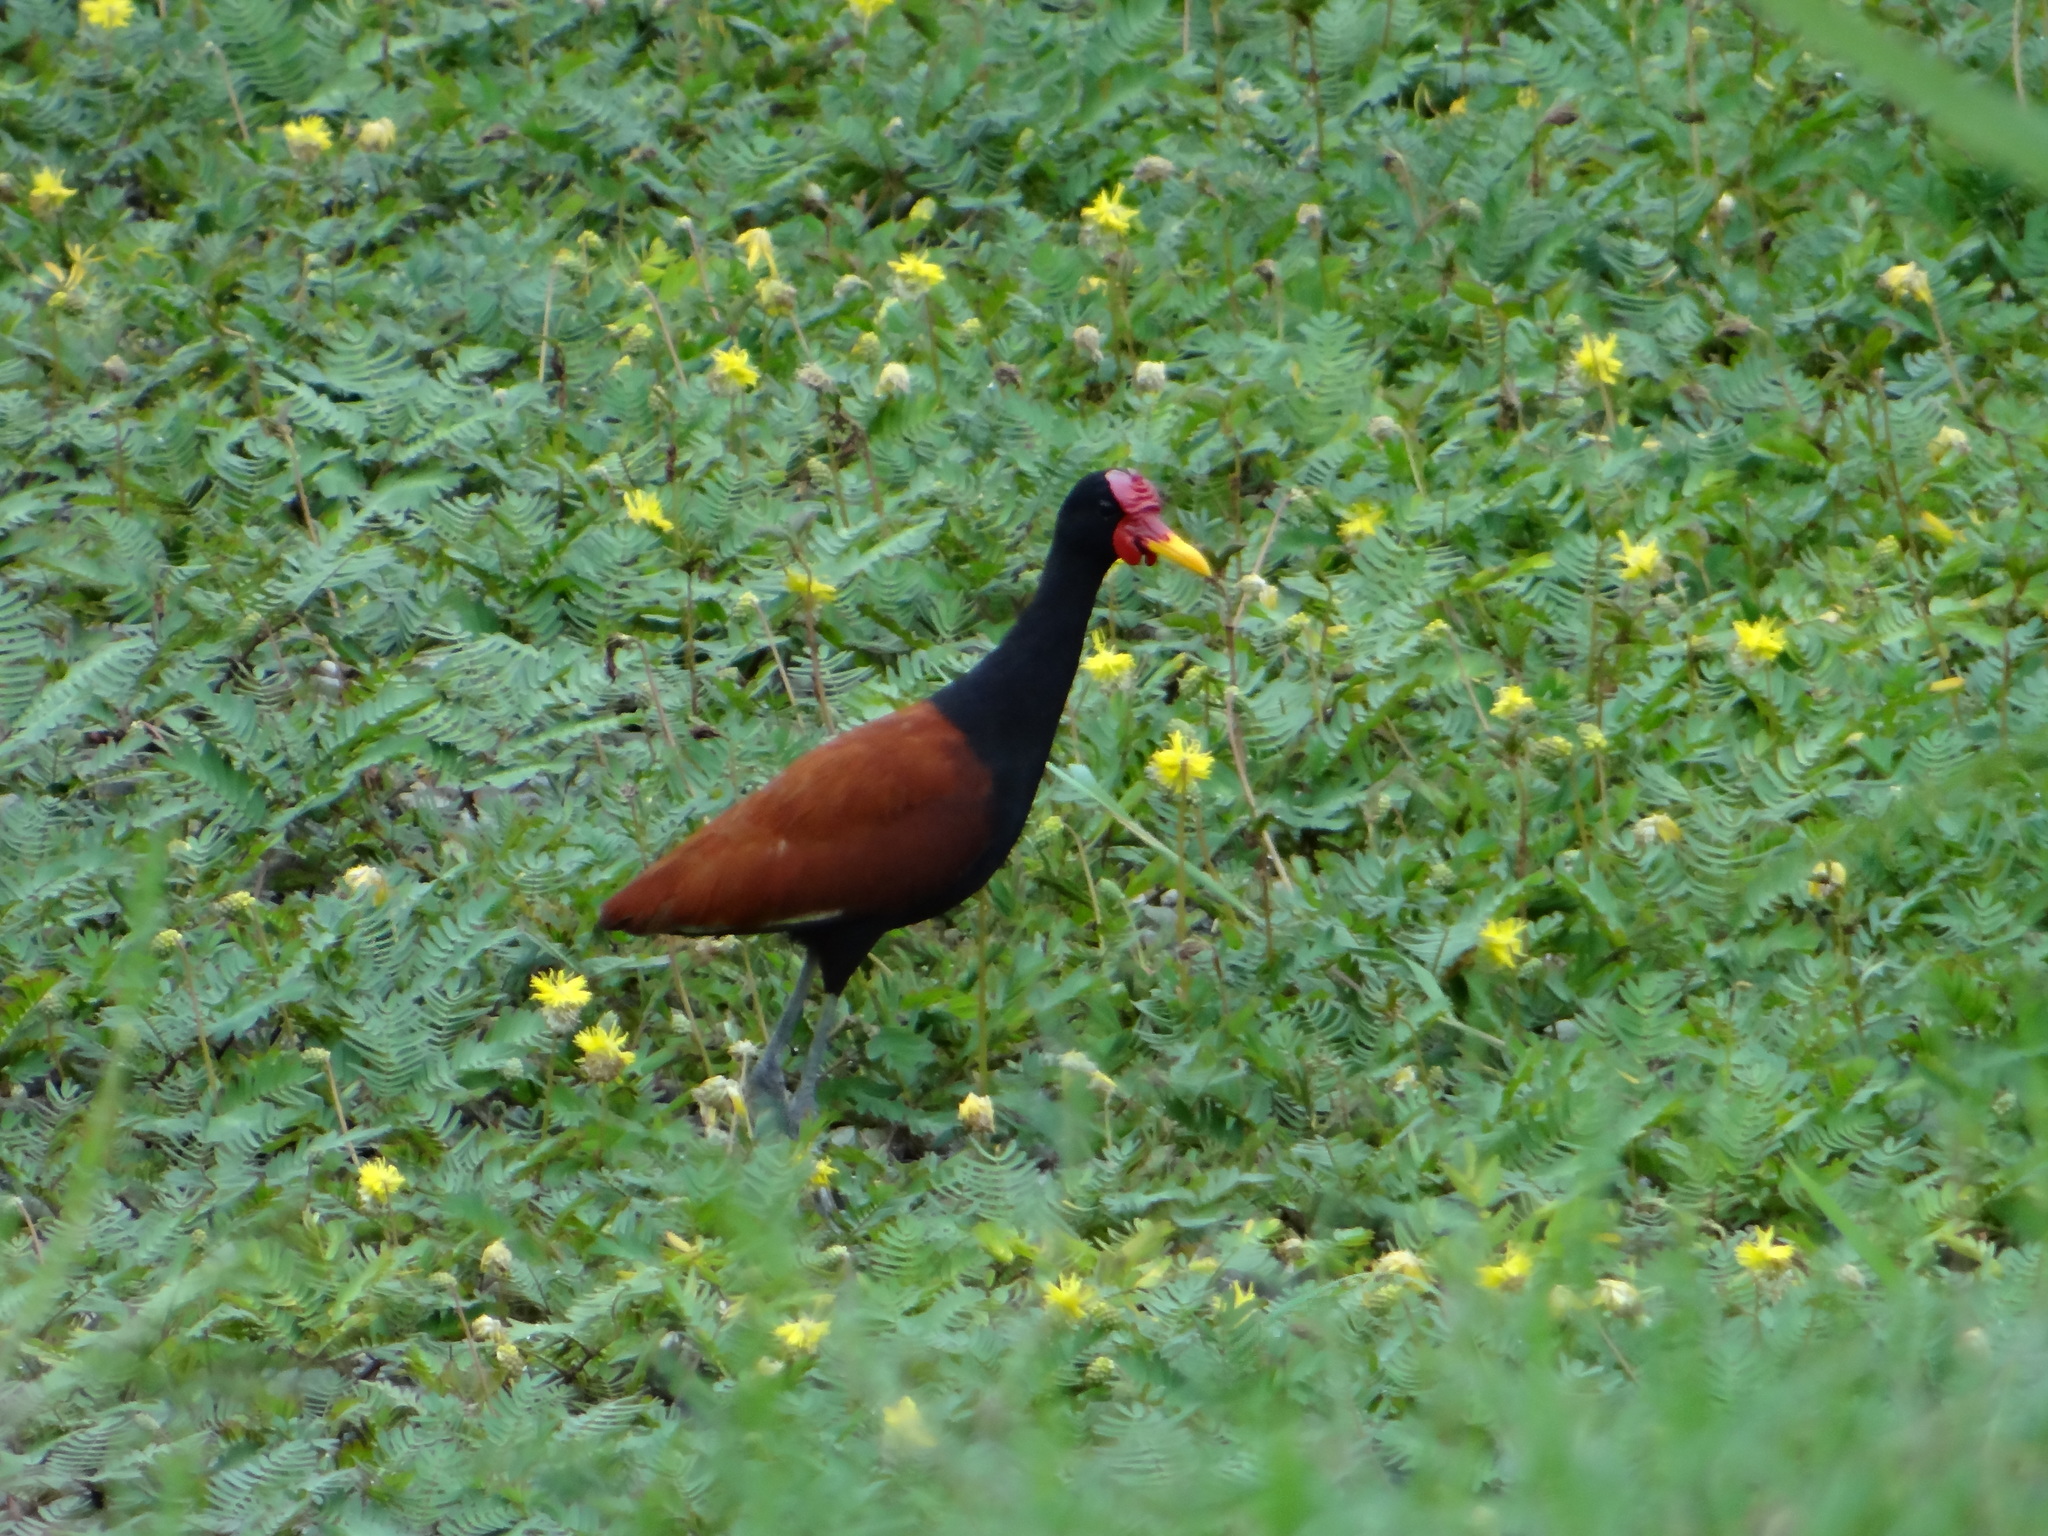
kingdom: Animalia
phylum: Chordata
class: Aves
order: Charadriiformes
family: Jacanidae
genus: Jacana
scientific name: Jacana jacana
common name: Wattled jacana
